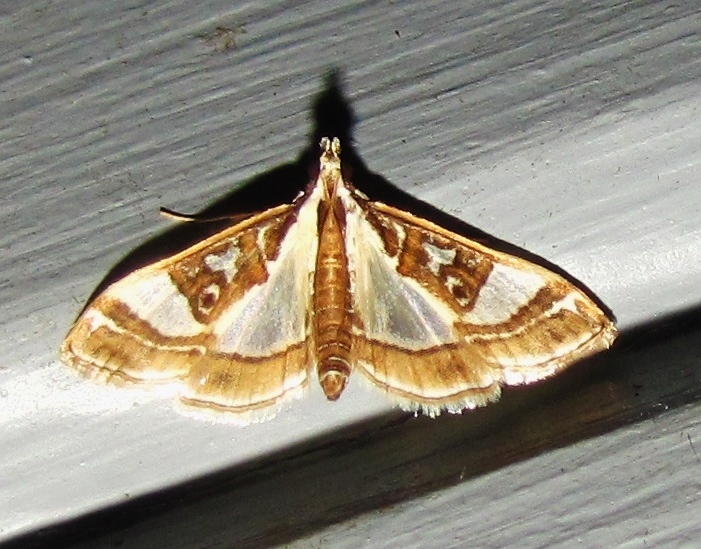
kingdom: Animalia
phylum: Arthropoda
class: Insecta
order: Lepidoptera
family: Crambidae
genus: Glyphodes
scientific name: Glyphodes pyloalis
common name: Lesser mulberry snout moth
